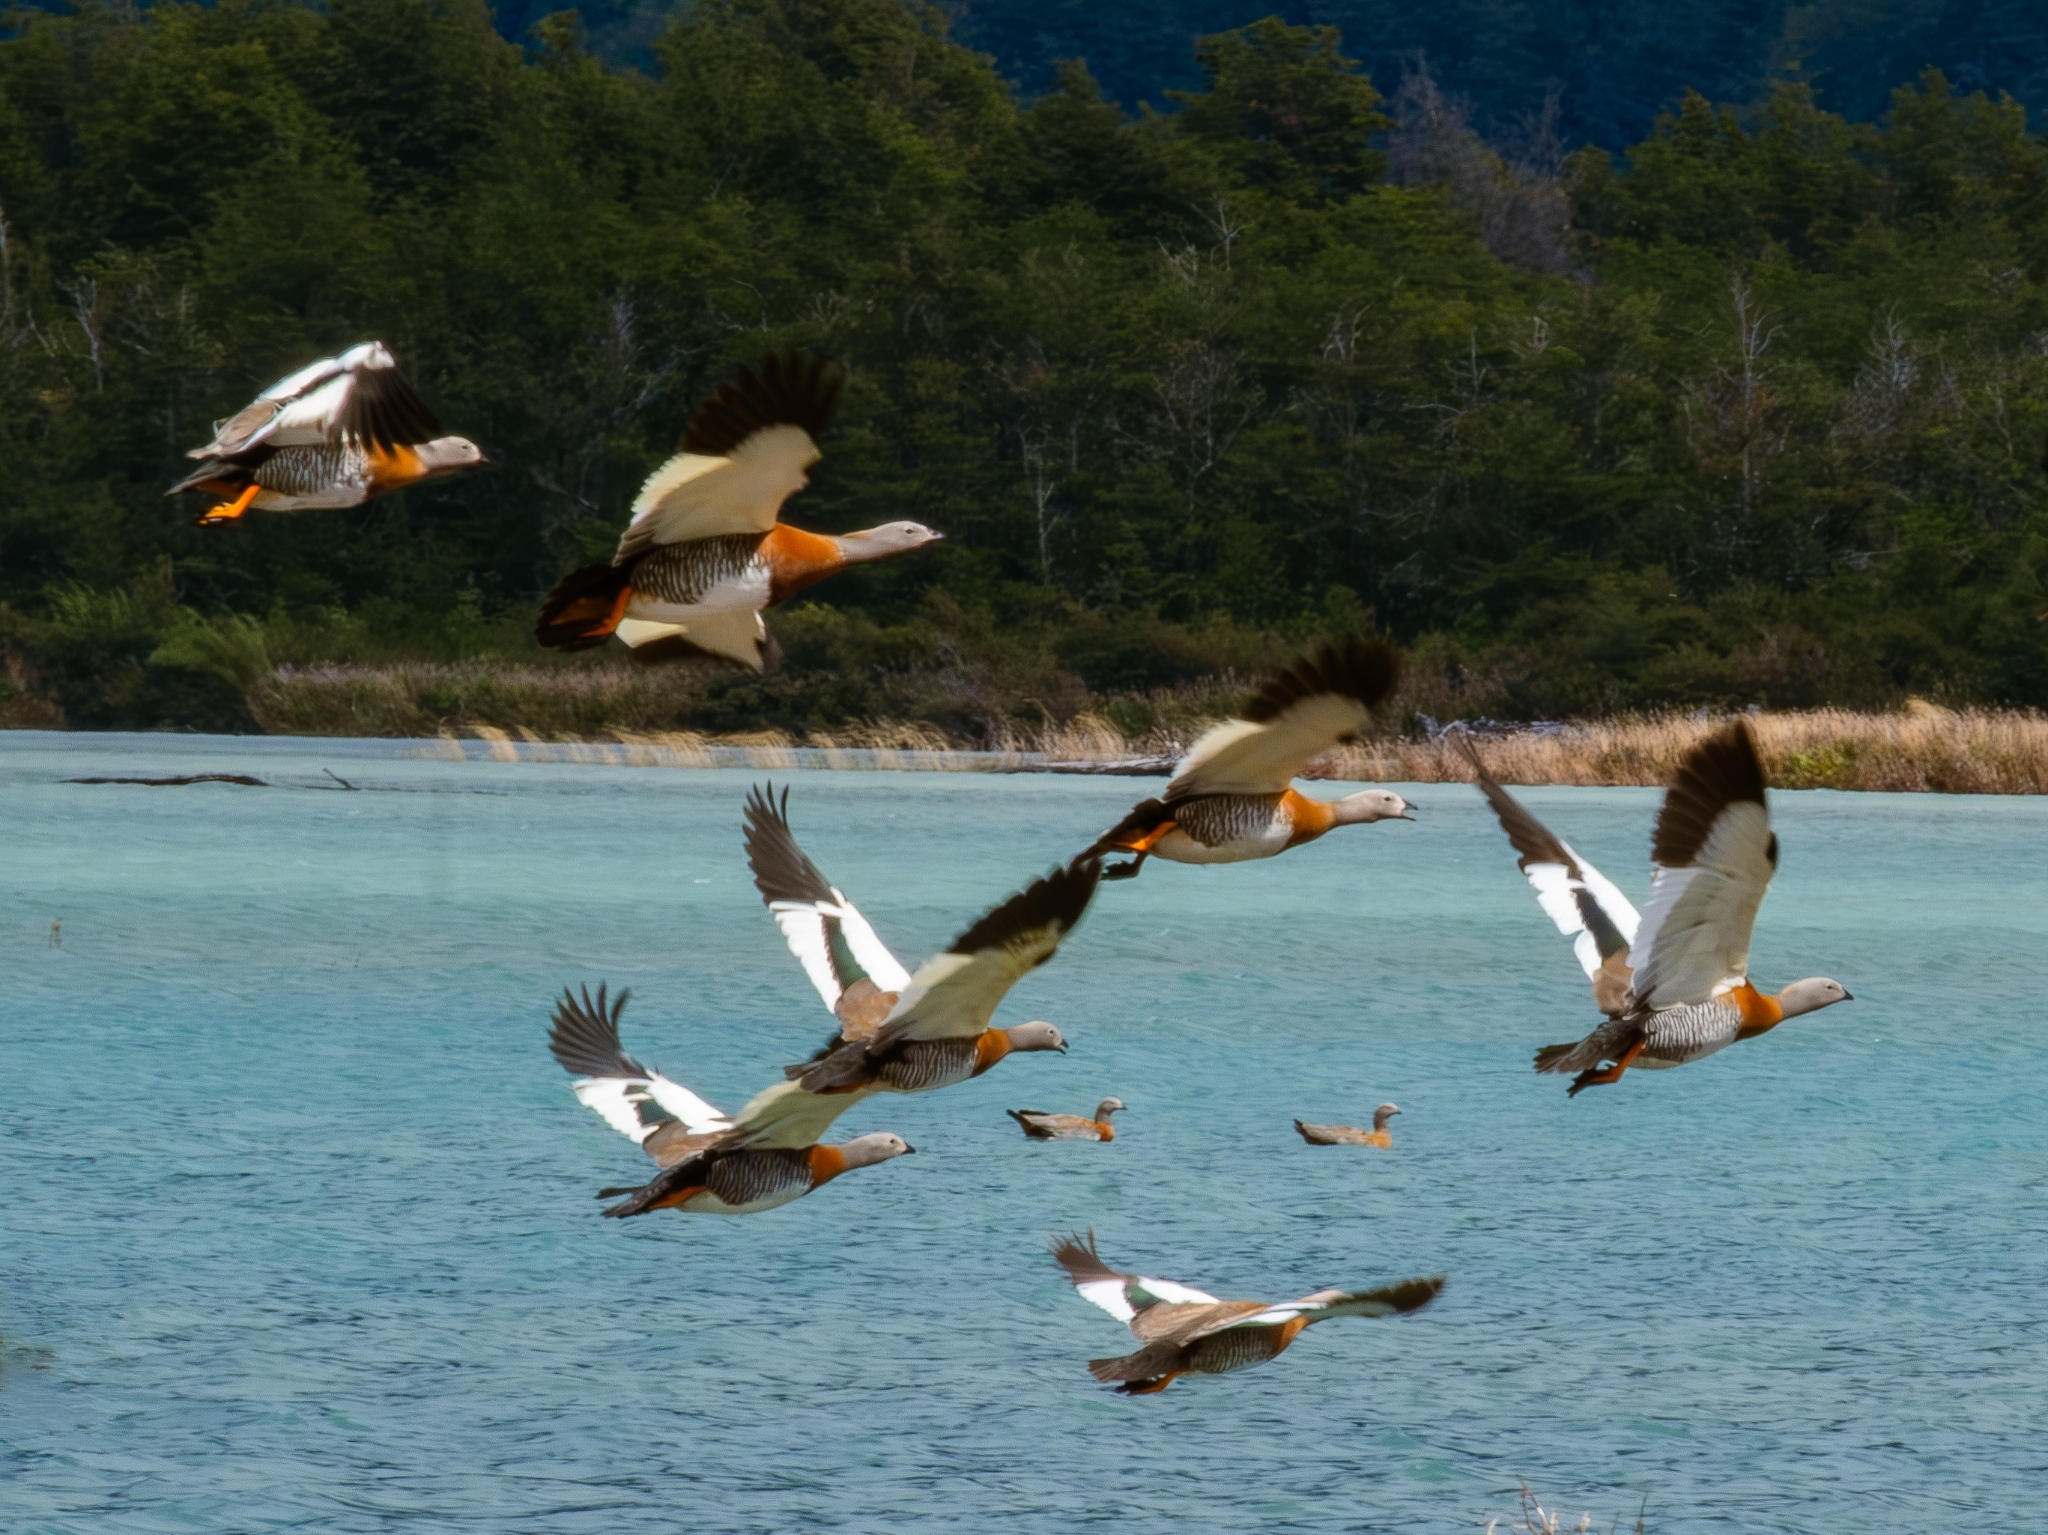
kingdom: Animalia
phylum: Chordata
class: Aves
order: Anseriformes
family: Anatidae
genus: Chloephaga
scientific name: Chloephaga poliocephala
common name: Ashy-headed goose
